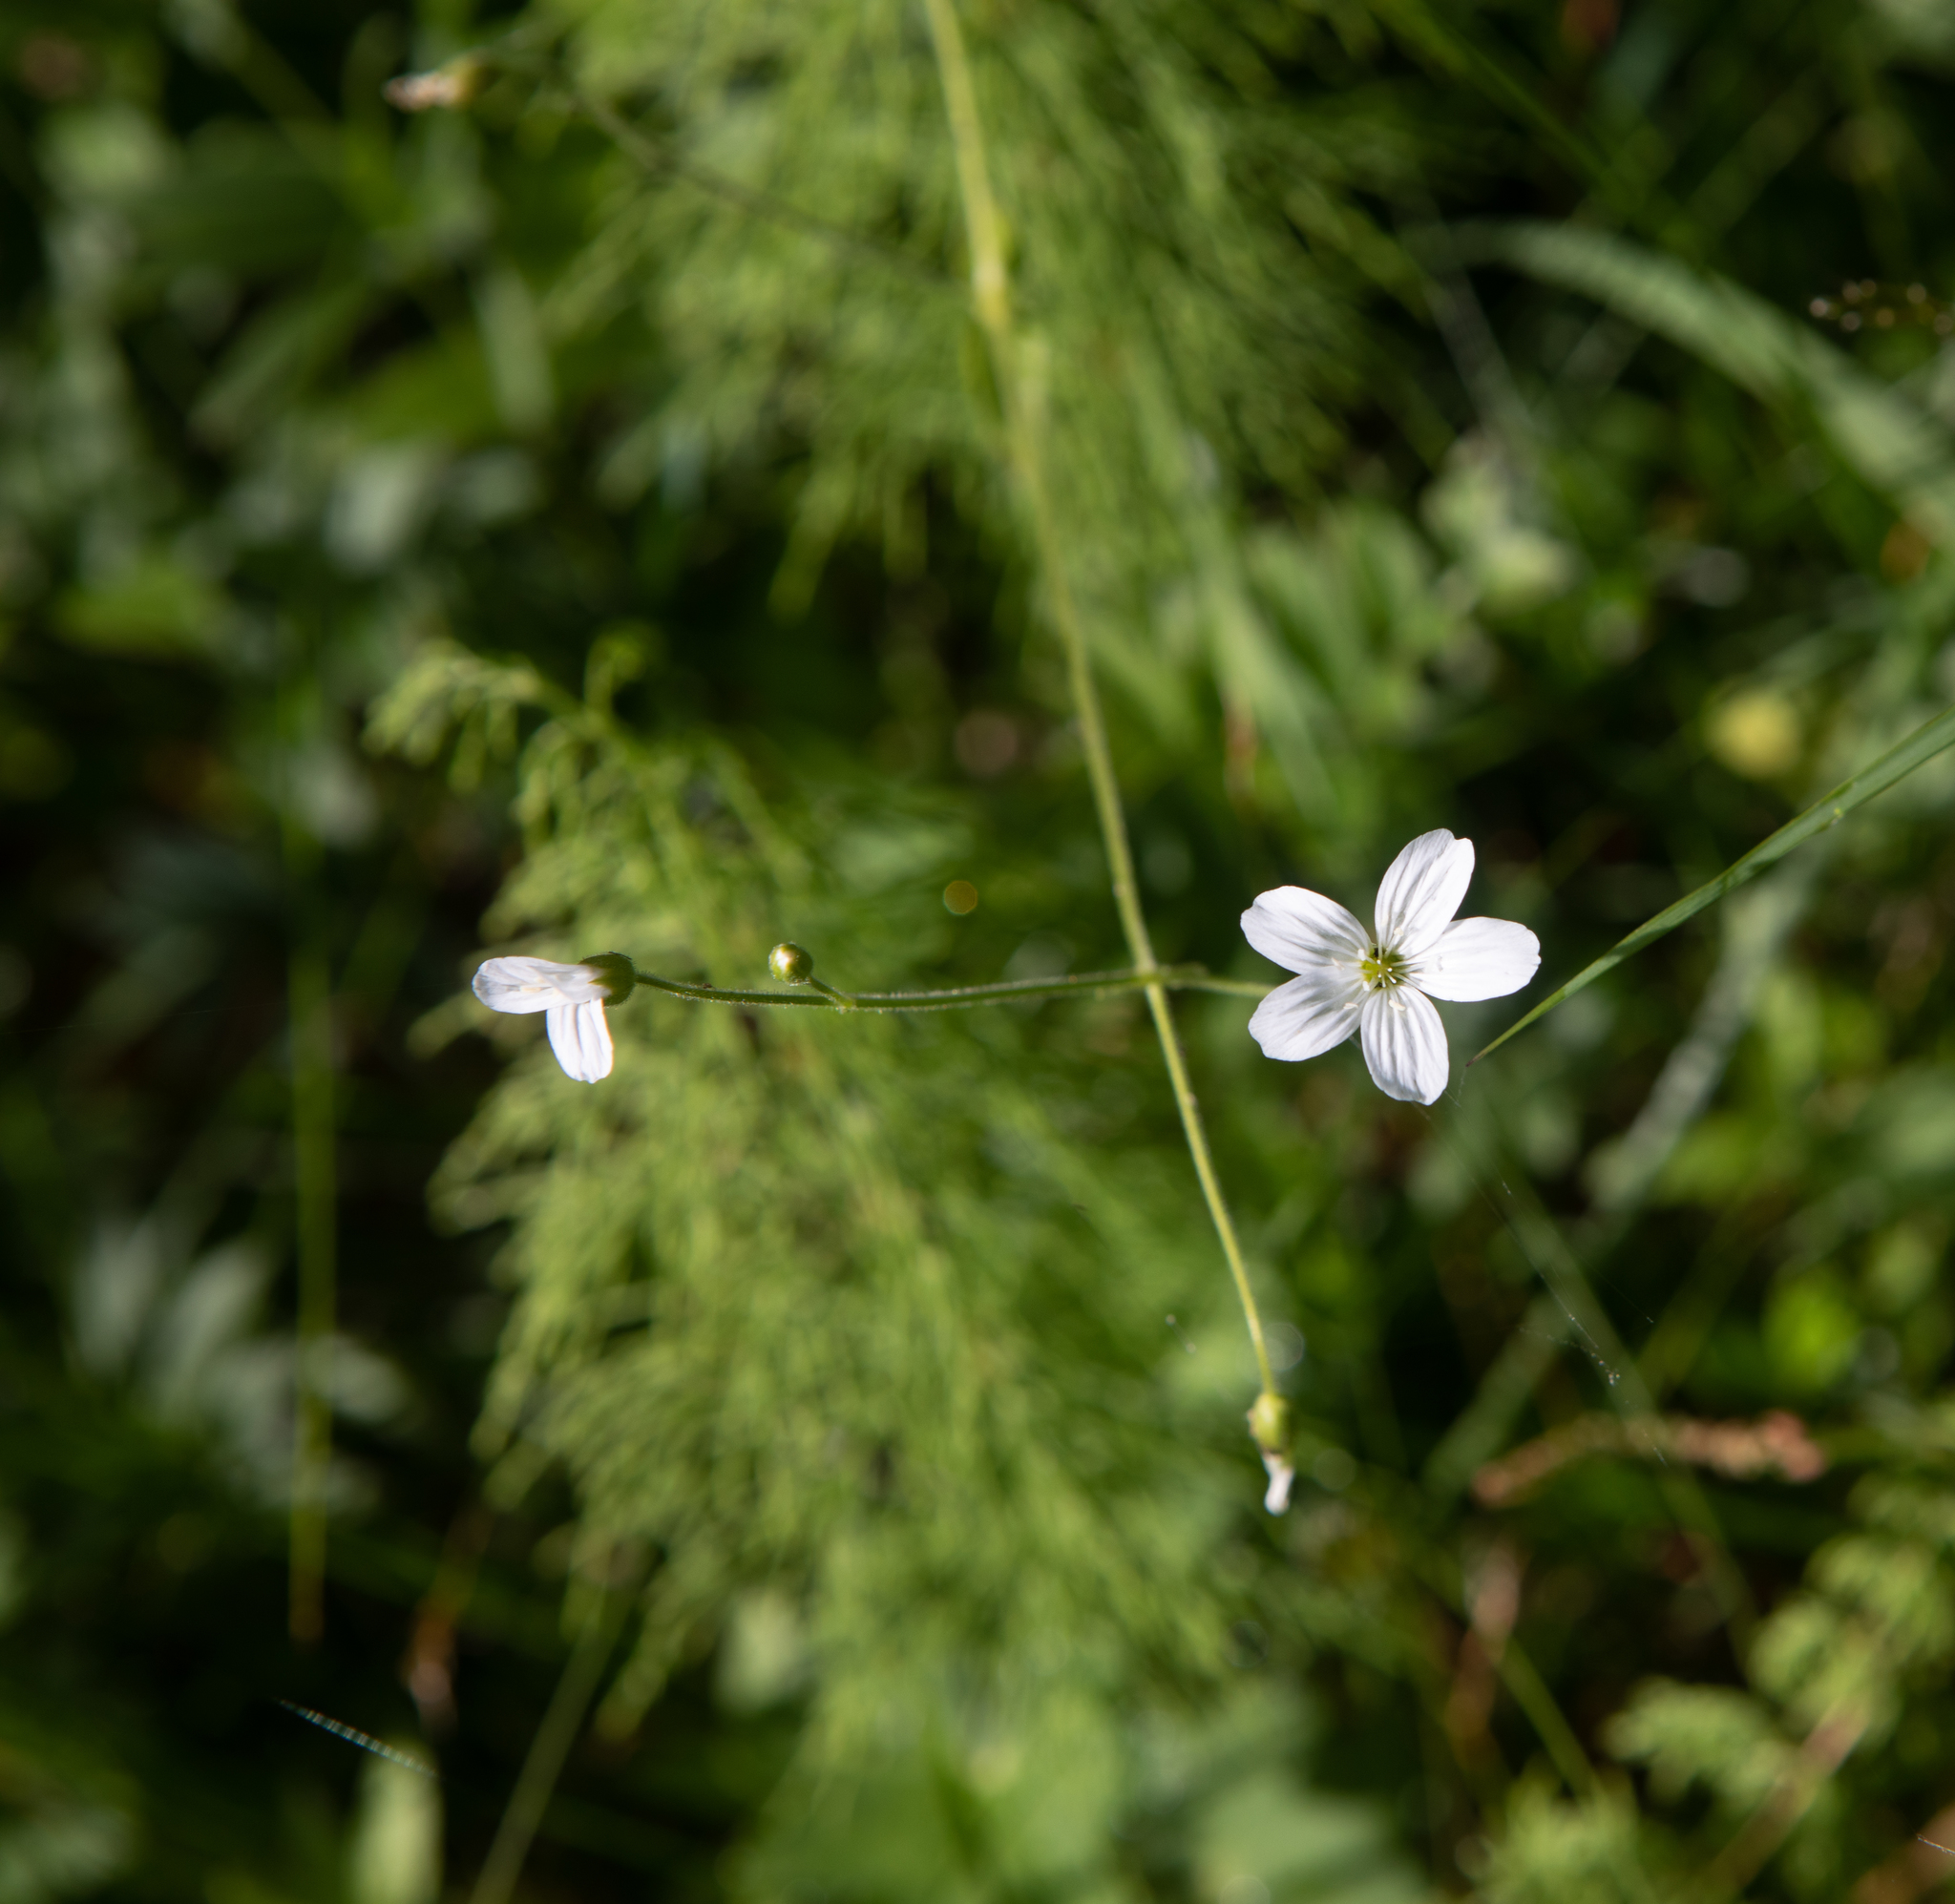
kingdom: Plantae
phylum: Tracheophyta
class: Magnoliopsida
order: Caryophyllales
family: Caryophyllaceae
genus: Cerastium
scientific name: Cerastium pauciflorum
